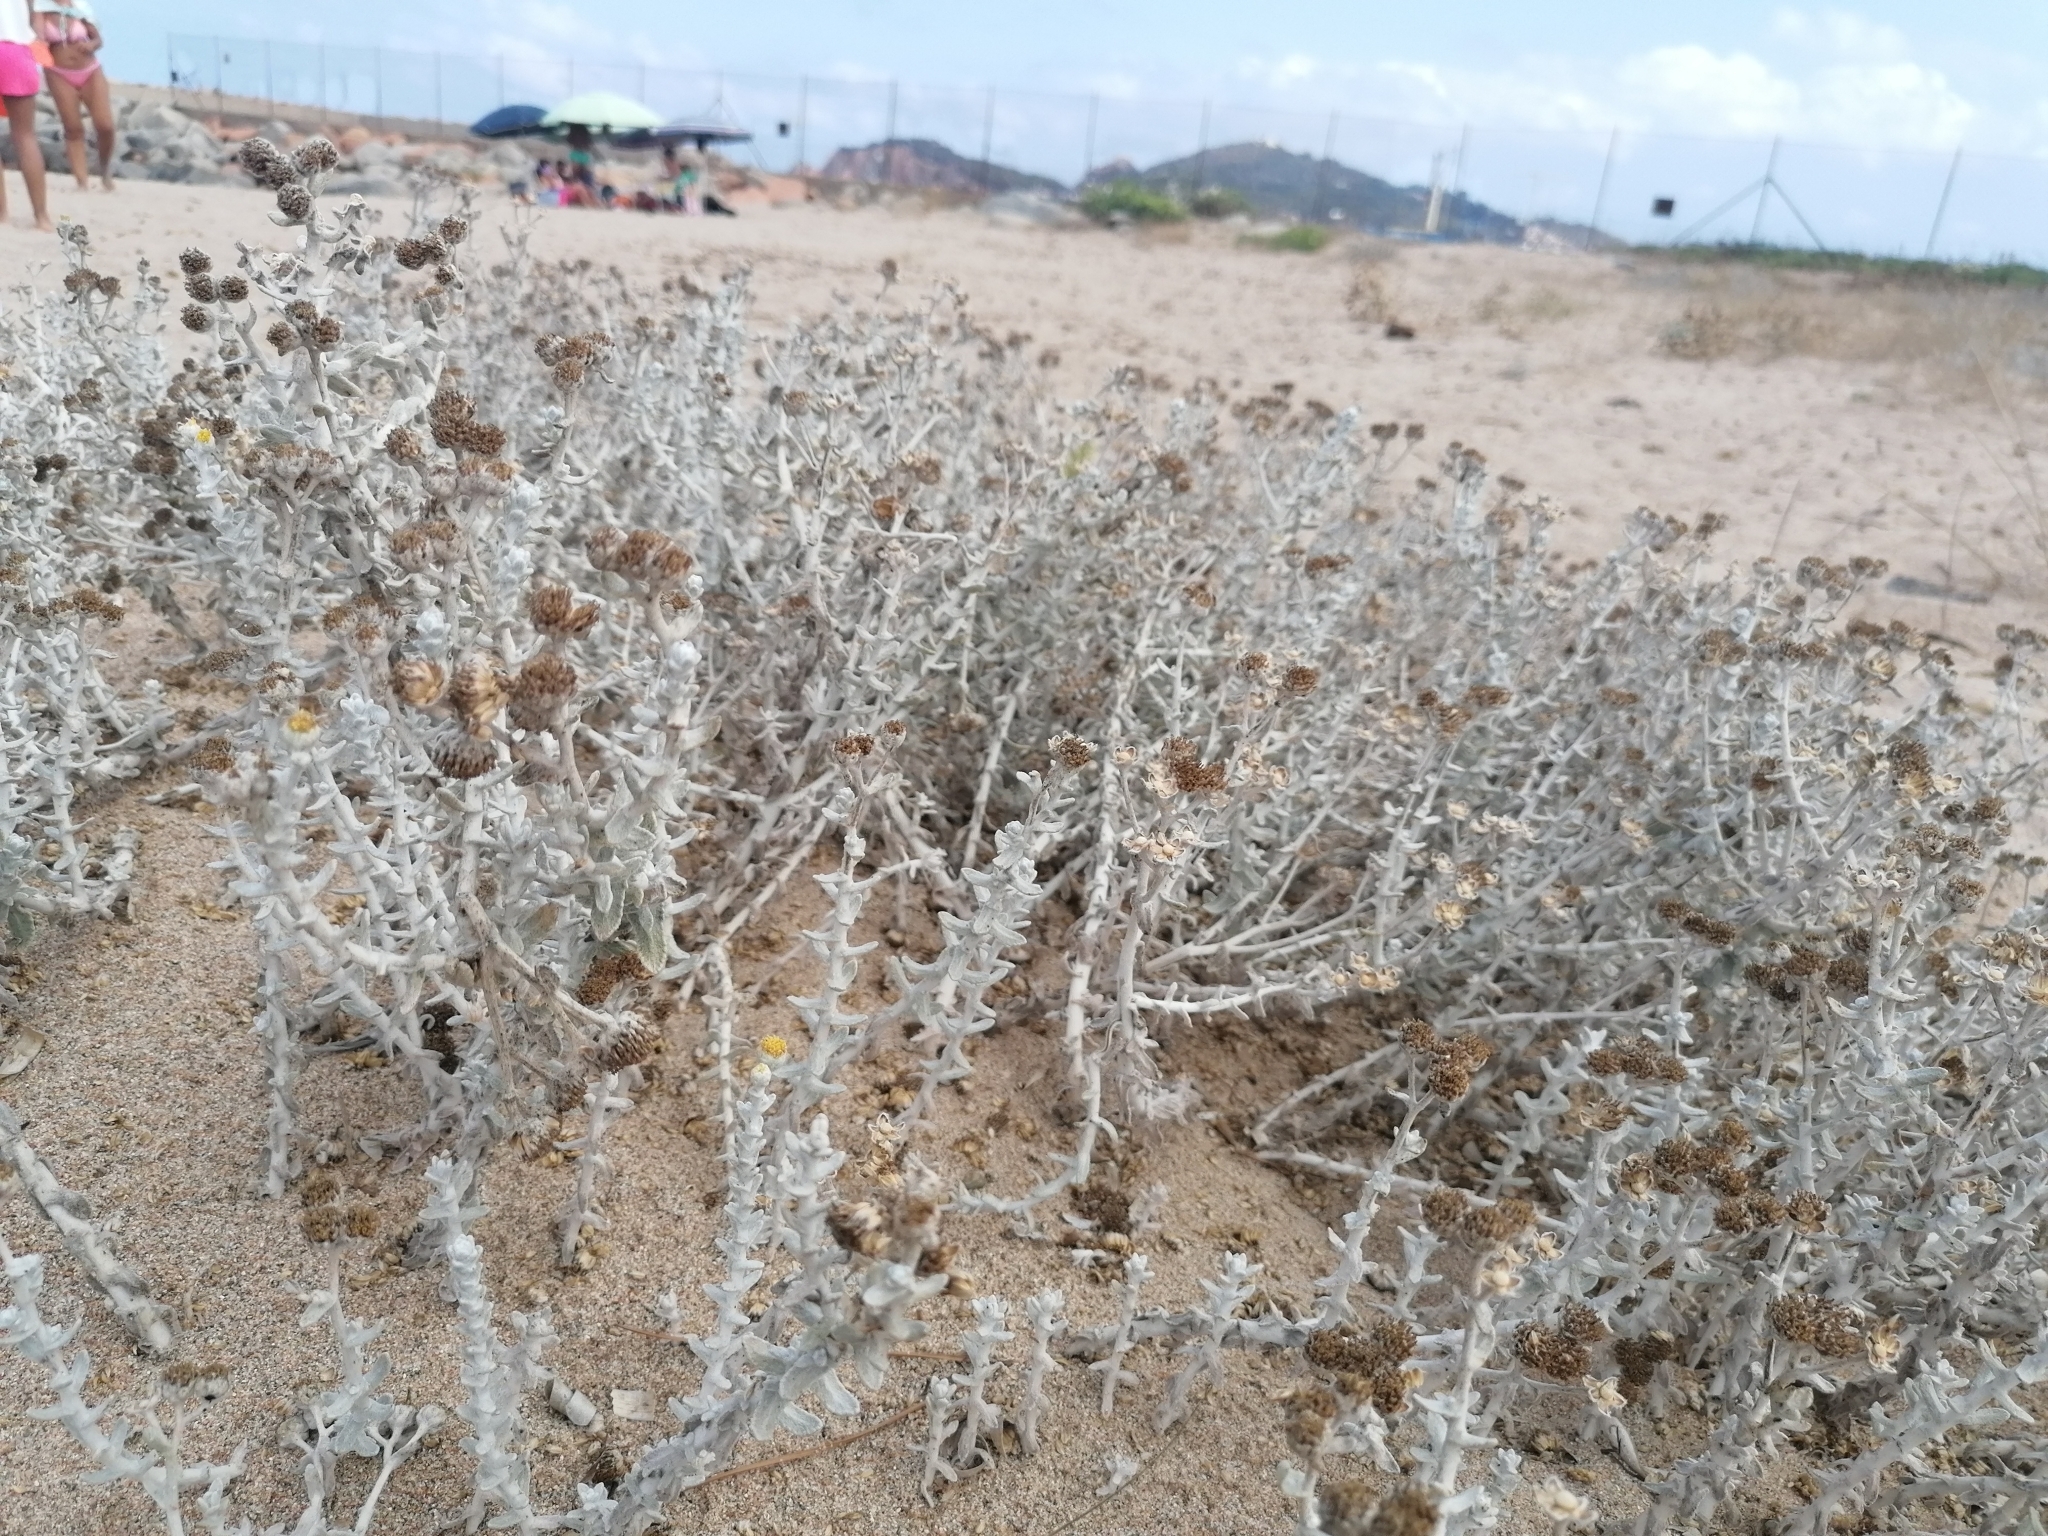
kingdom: Plantae
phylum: Tracheophyta
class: Magnoliopsida
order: Asterales
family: Asteraceae
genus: Achillea
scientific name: Achillea maritima
